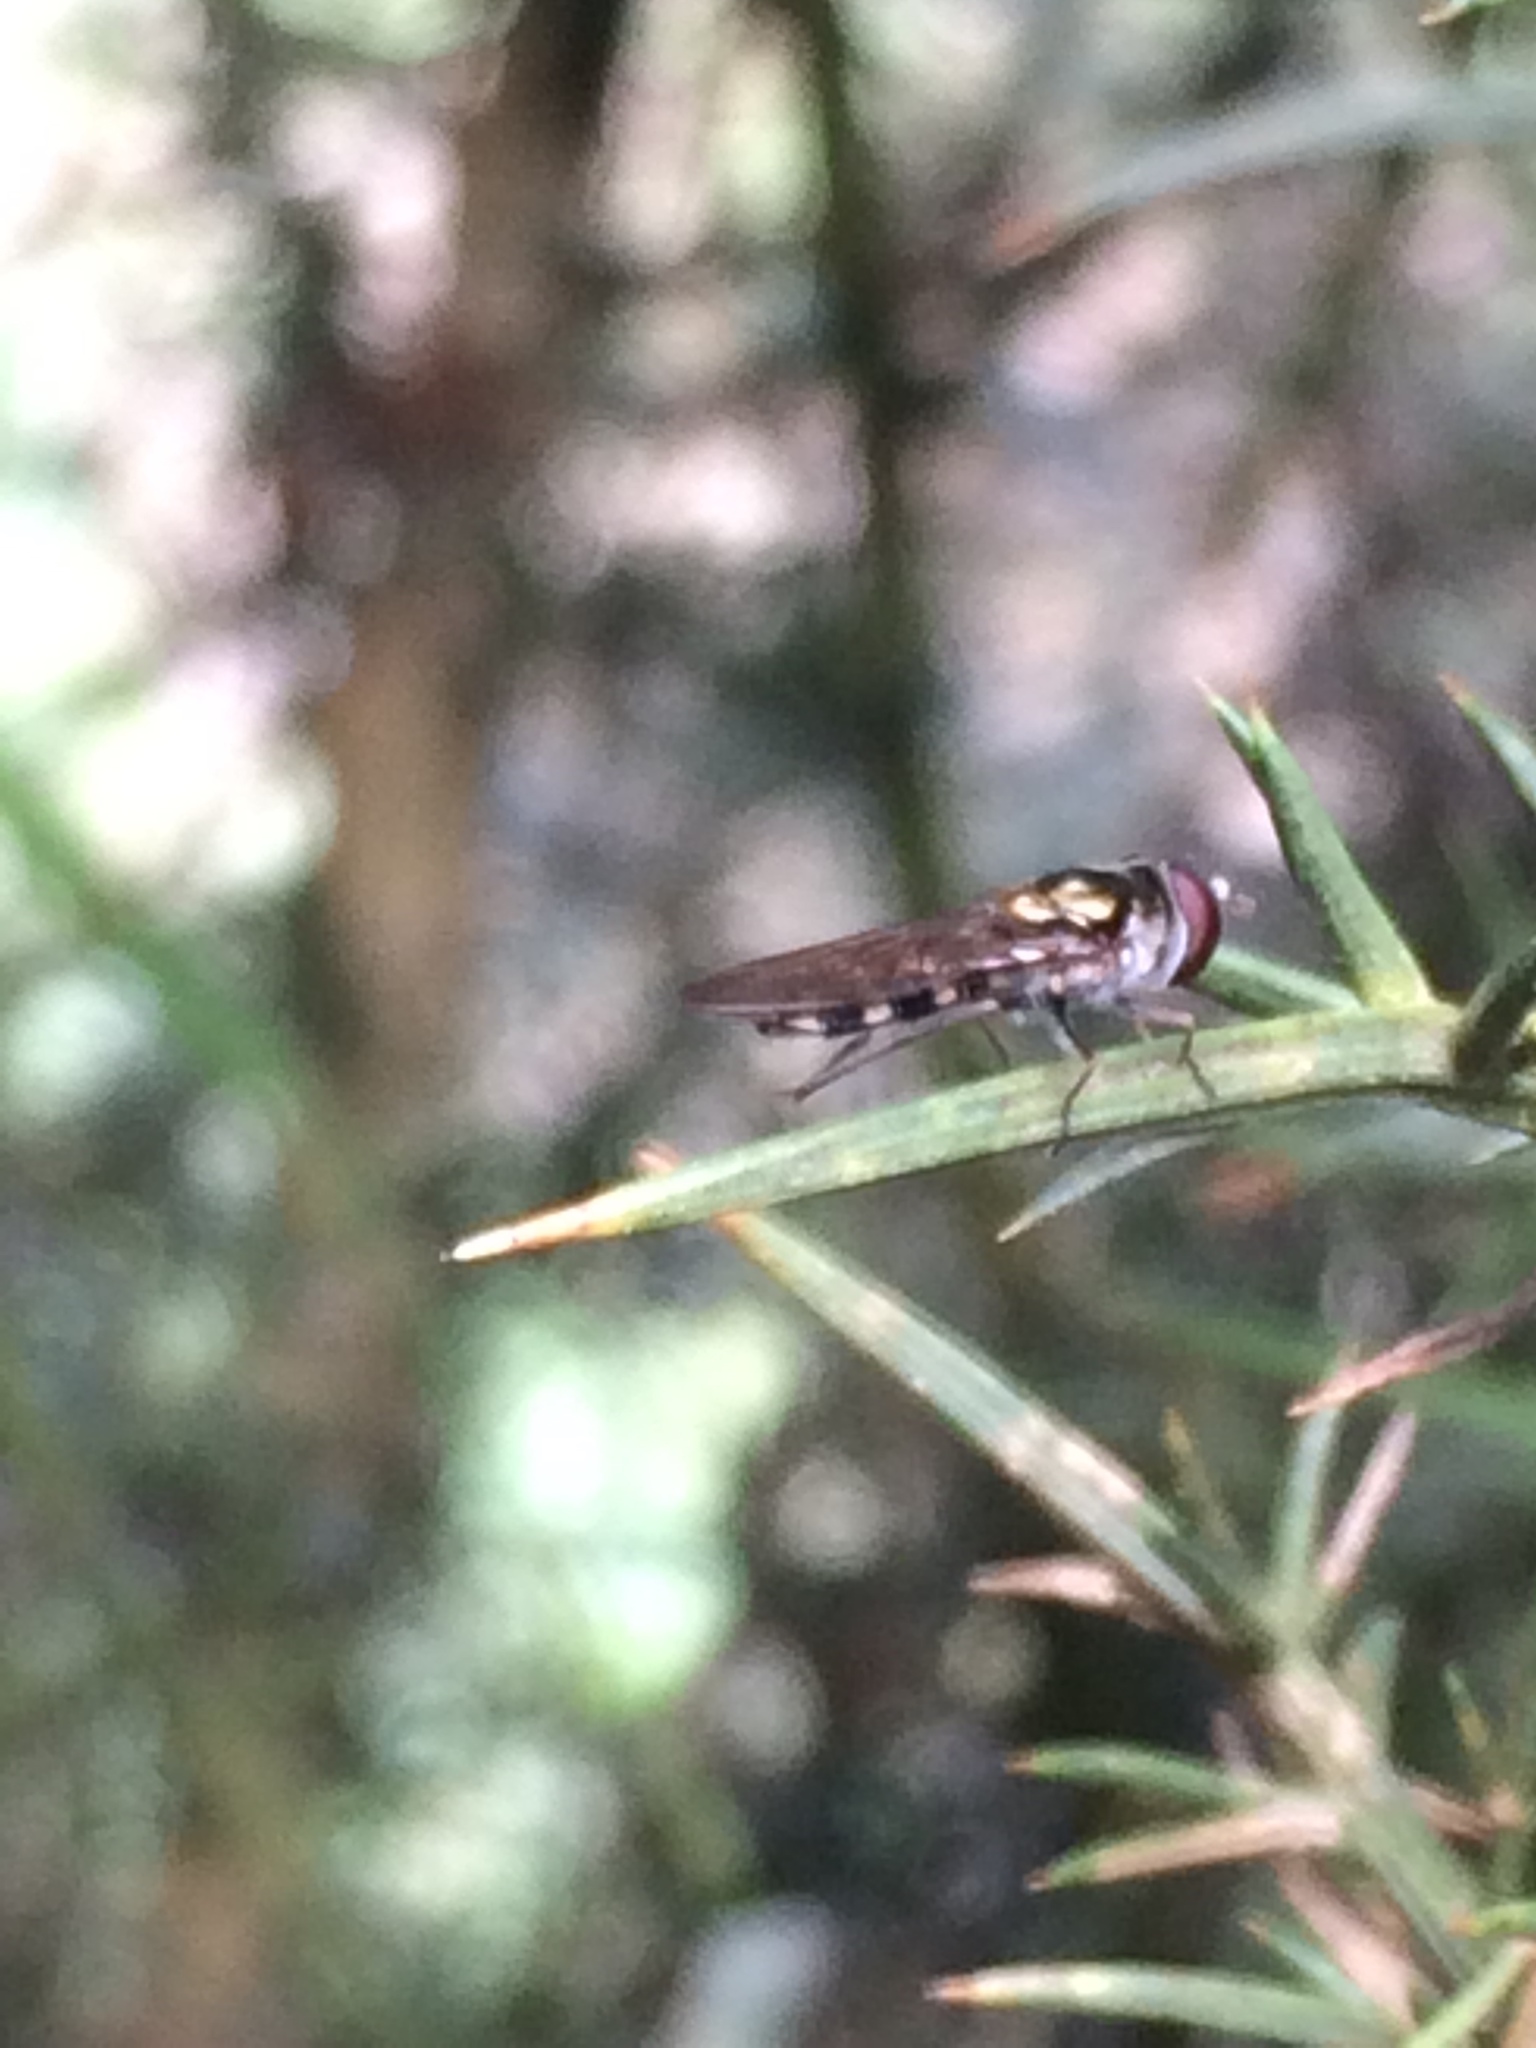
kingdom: Animalia
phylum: Arthropoda
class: Insecta
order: Diptera
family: Syrphidae
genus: Melangyna
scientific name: Melangyna novaezelandiae
